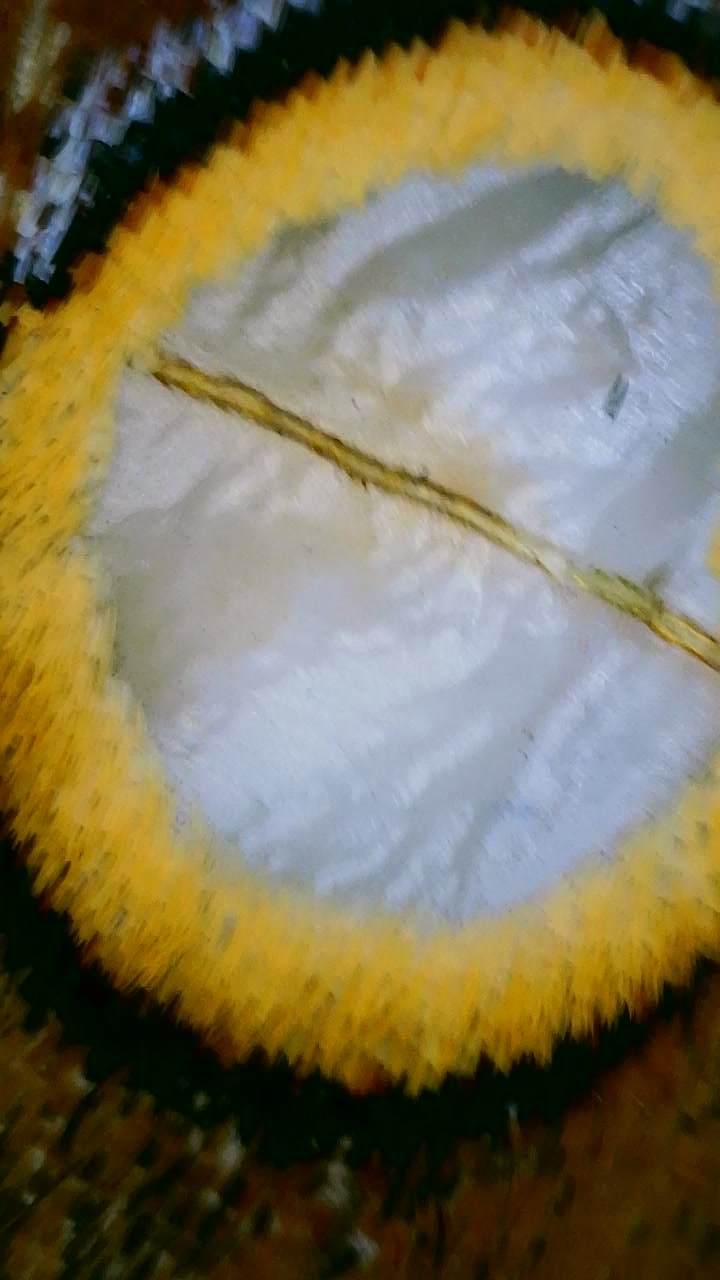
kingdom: Animalia
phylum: Arthropoda
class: Insecta
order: Lepidoptera
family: Saturniidae
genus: Antheraea
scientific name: Antheraea polyphemus
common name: Polyphemus moth
